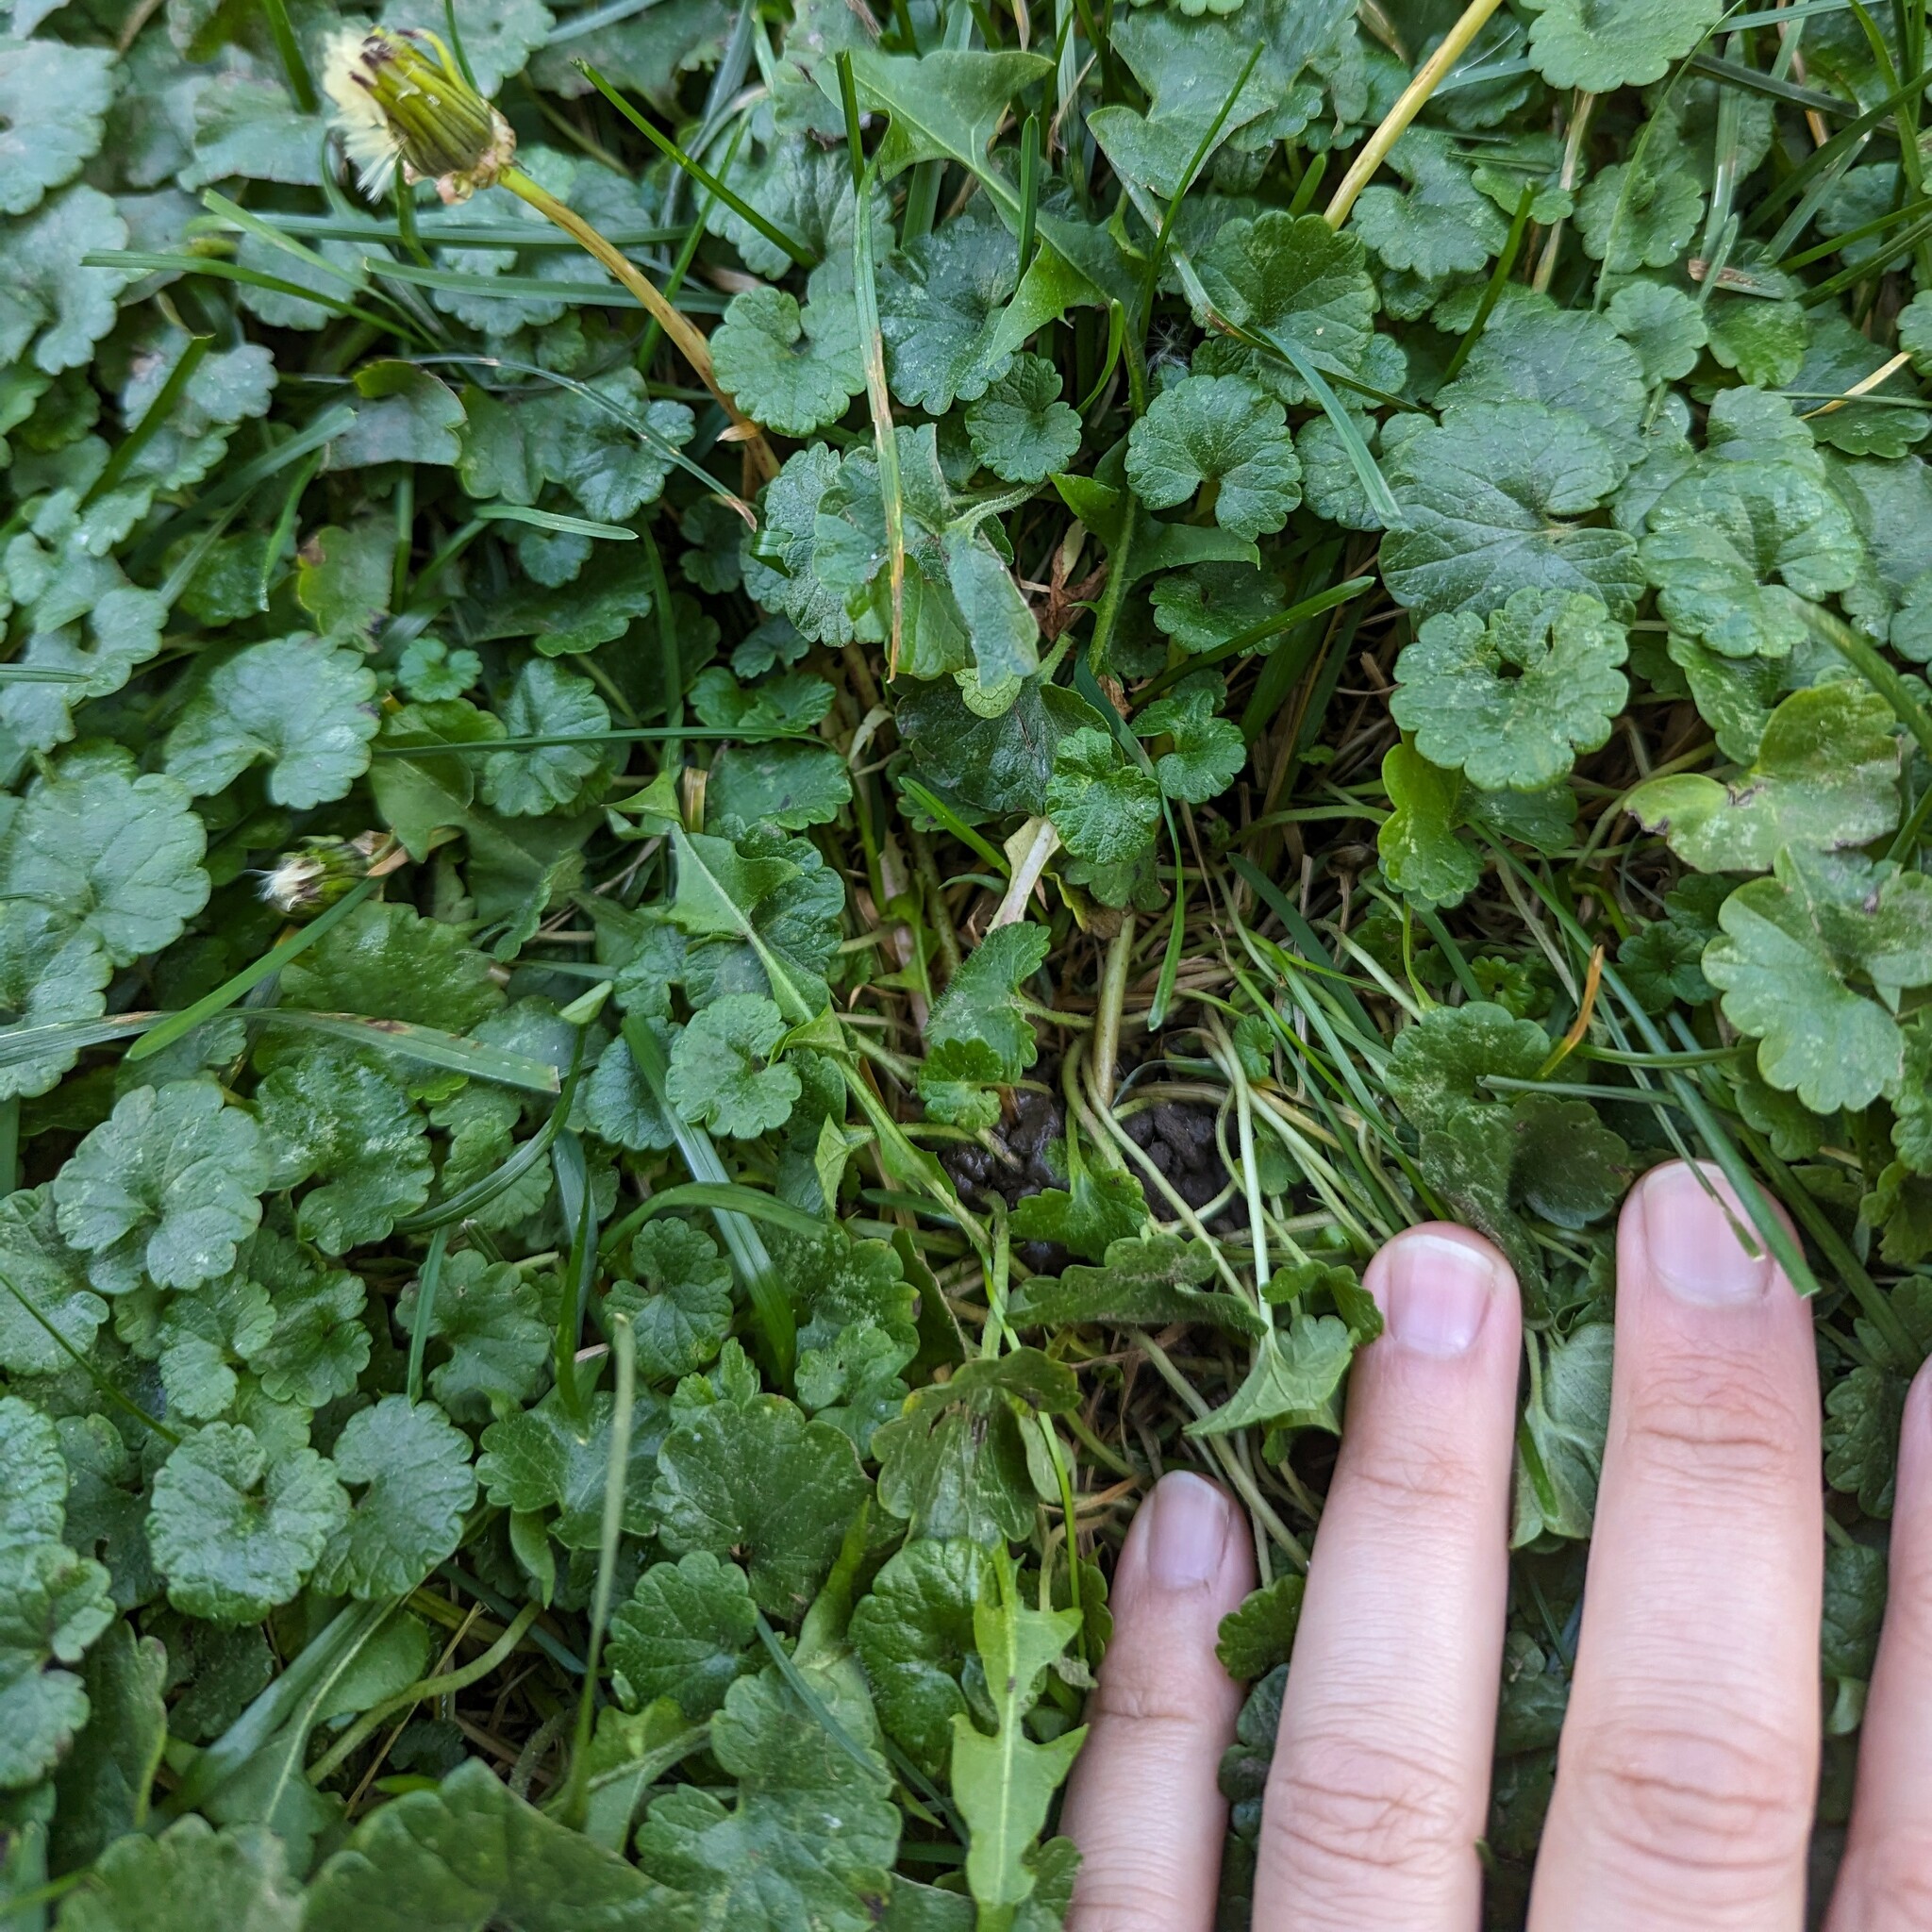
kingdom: Plantae
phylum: Tracheophyta
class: Magnoliopsida
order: Asterales
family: Asteraceae
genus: Taraxacum
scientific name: Taraxacum officinale
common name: Common dandelion
